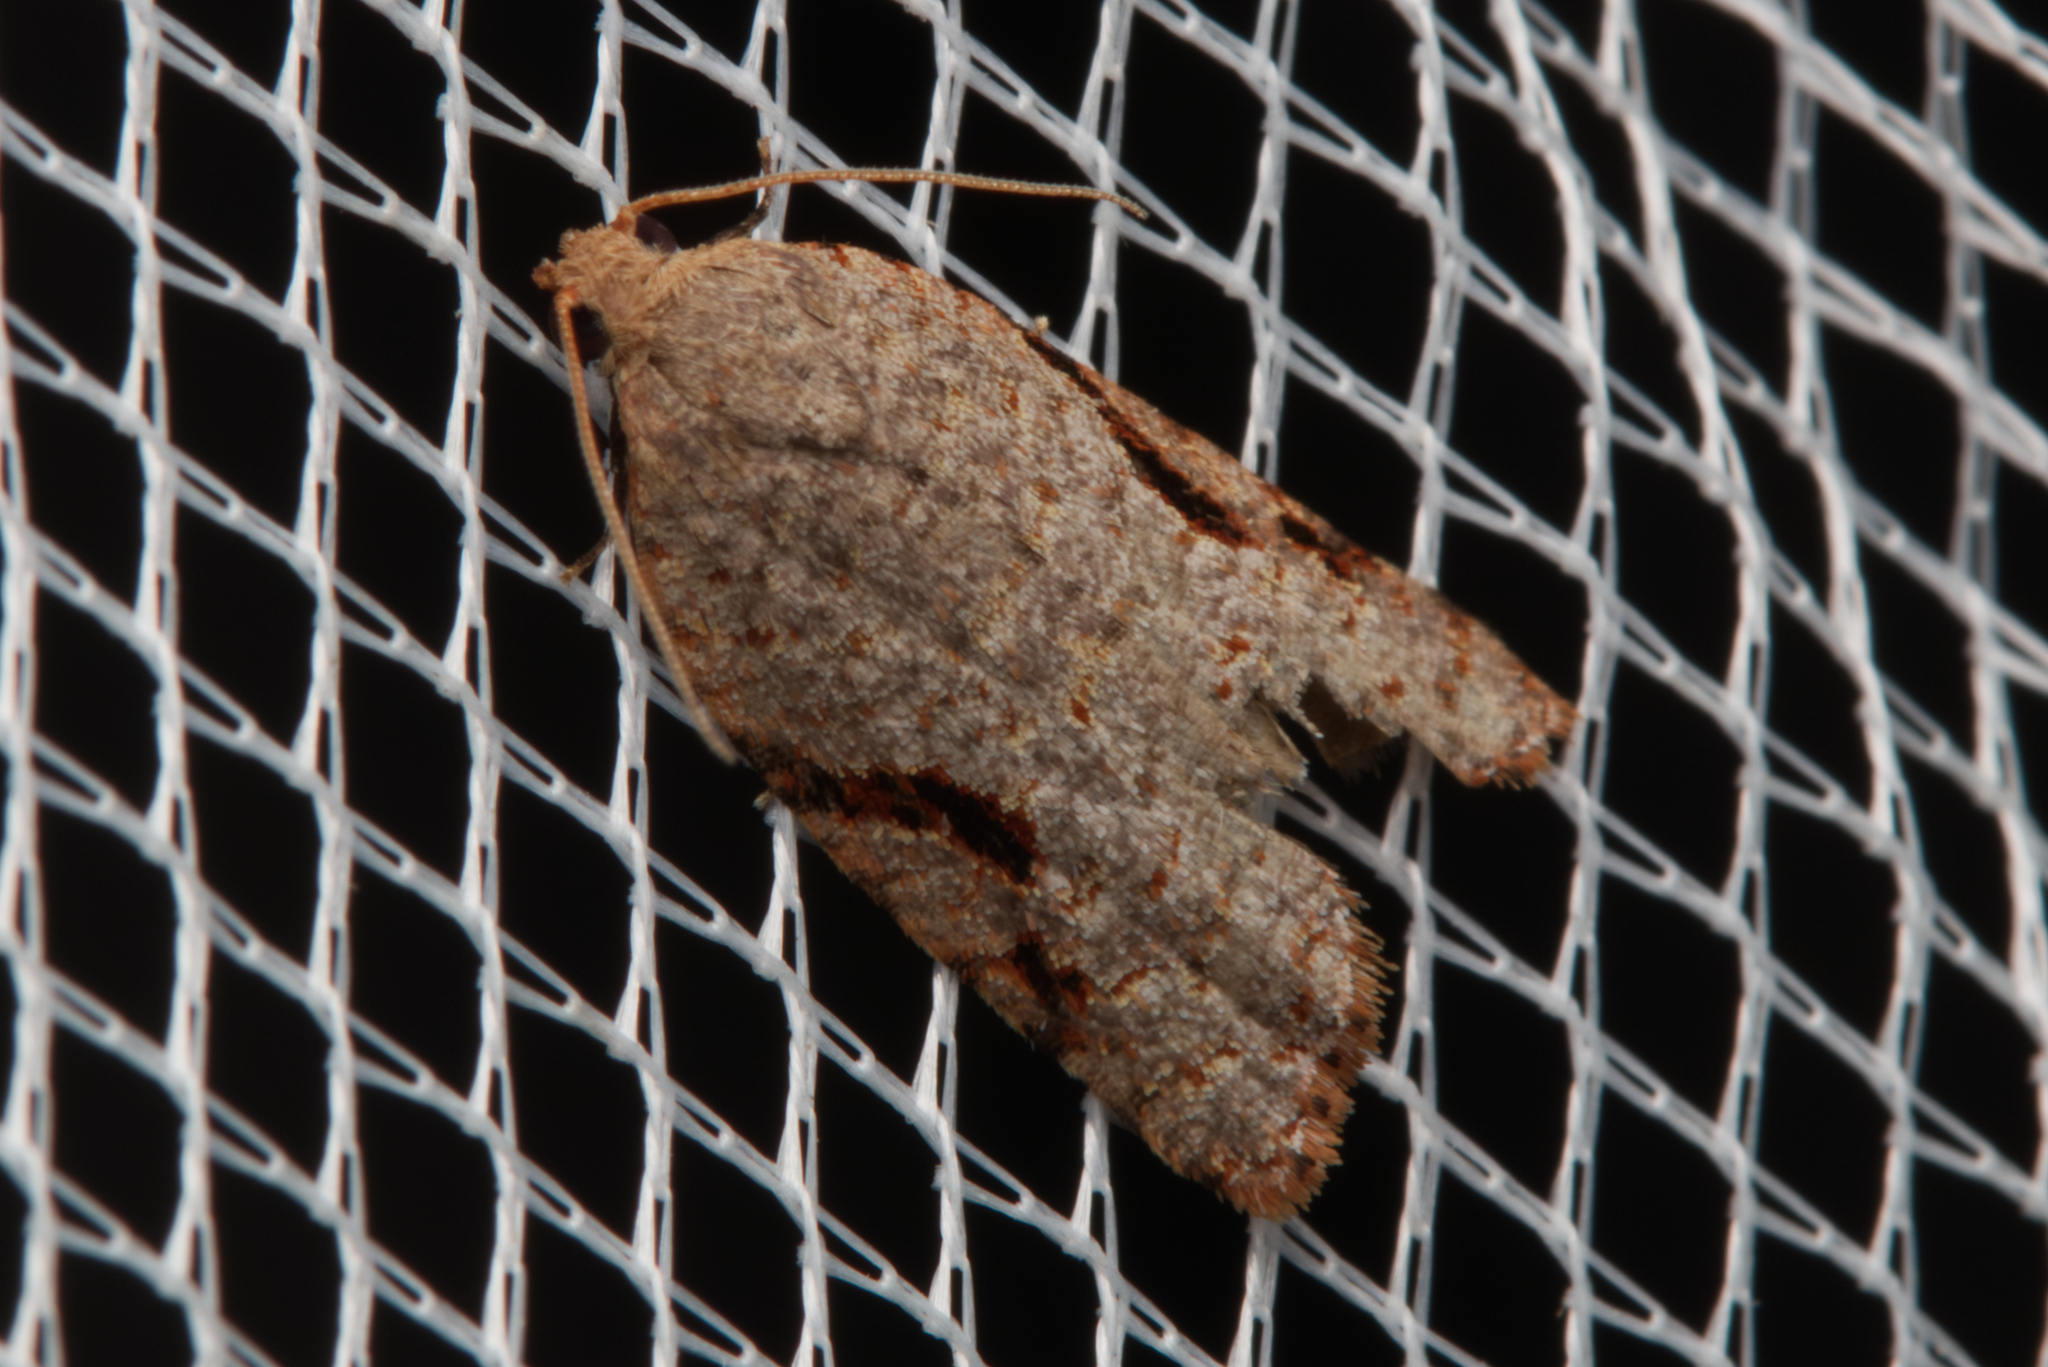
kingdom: Animalia
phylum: Arthropoda
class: Insecta
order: Lepidoptera
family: Tortricidae
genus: Meritastis
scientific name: Meritastis piperata
